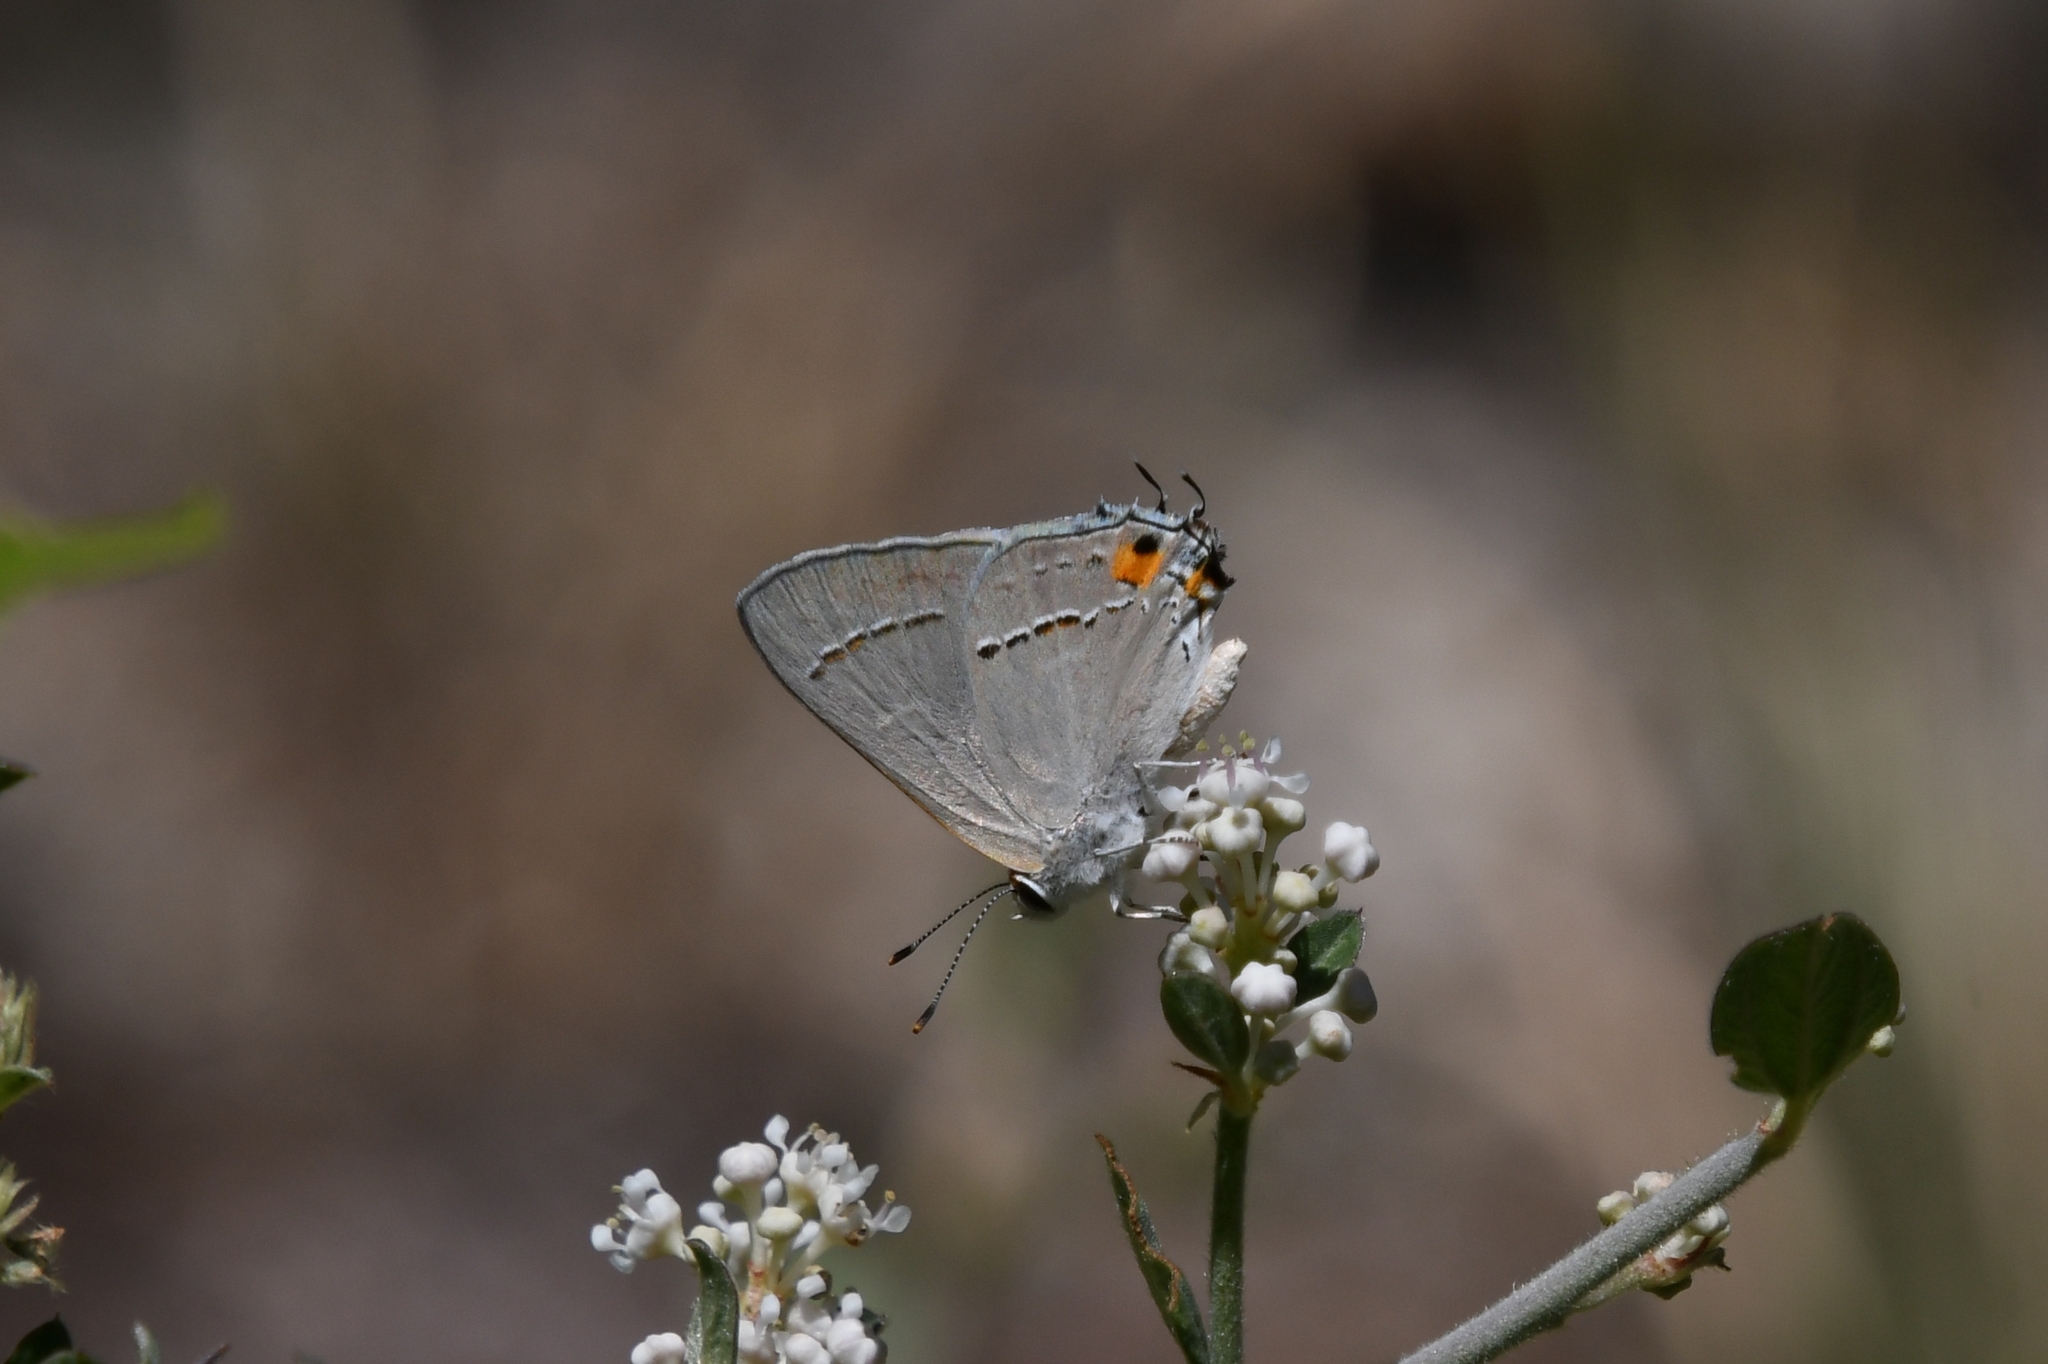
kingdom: Animalia
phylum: Arthropoda
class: Insecta
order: Lepidoptera
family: Lycaenidae
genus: Strymon
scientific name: Strymon melinus
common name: Gray hairstreak
